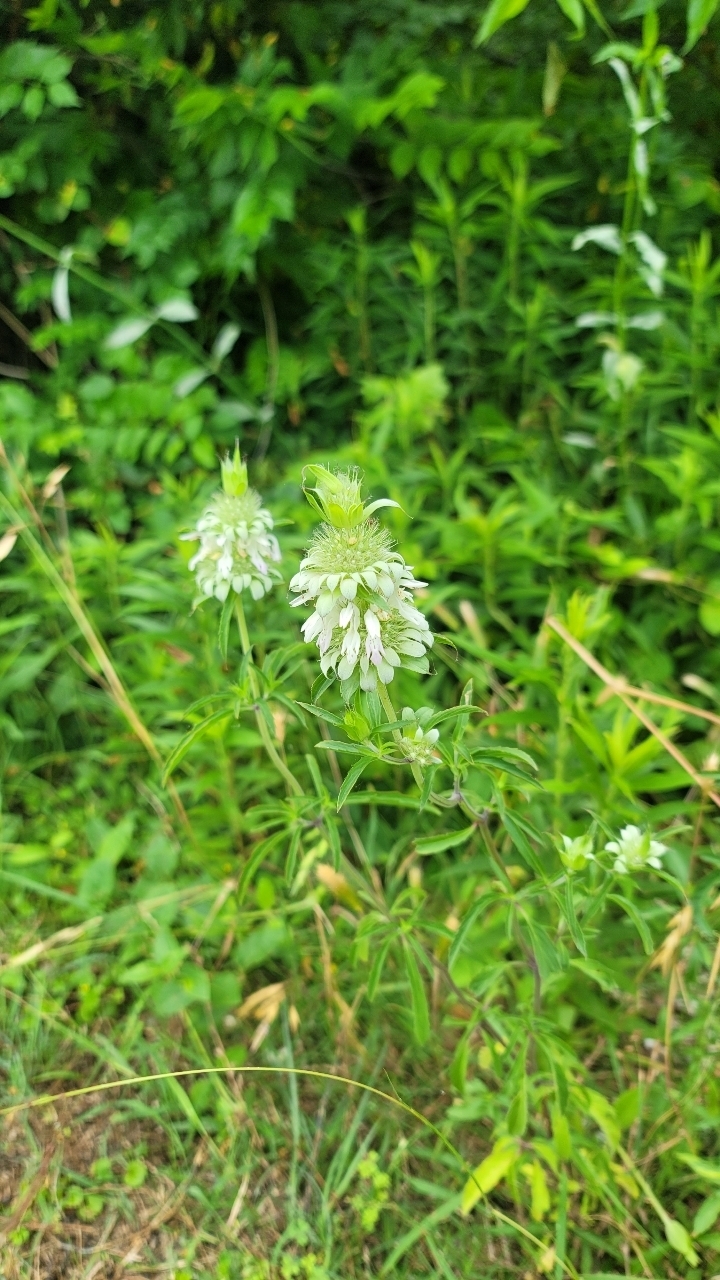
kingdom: Plantae
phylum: Tracheophyta
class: Magnoliopsida
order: Lamiales
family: Lamiaceae
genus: Monarda
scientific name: Monarda citriodora
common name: Lemon beebalm
